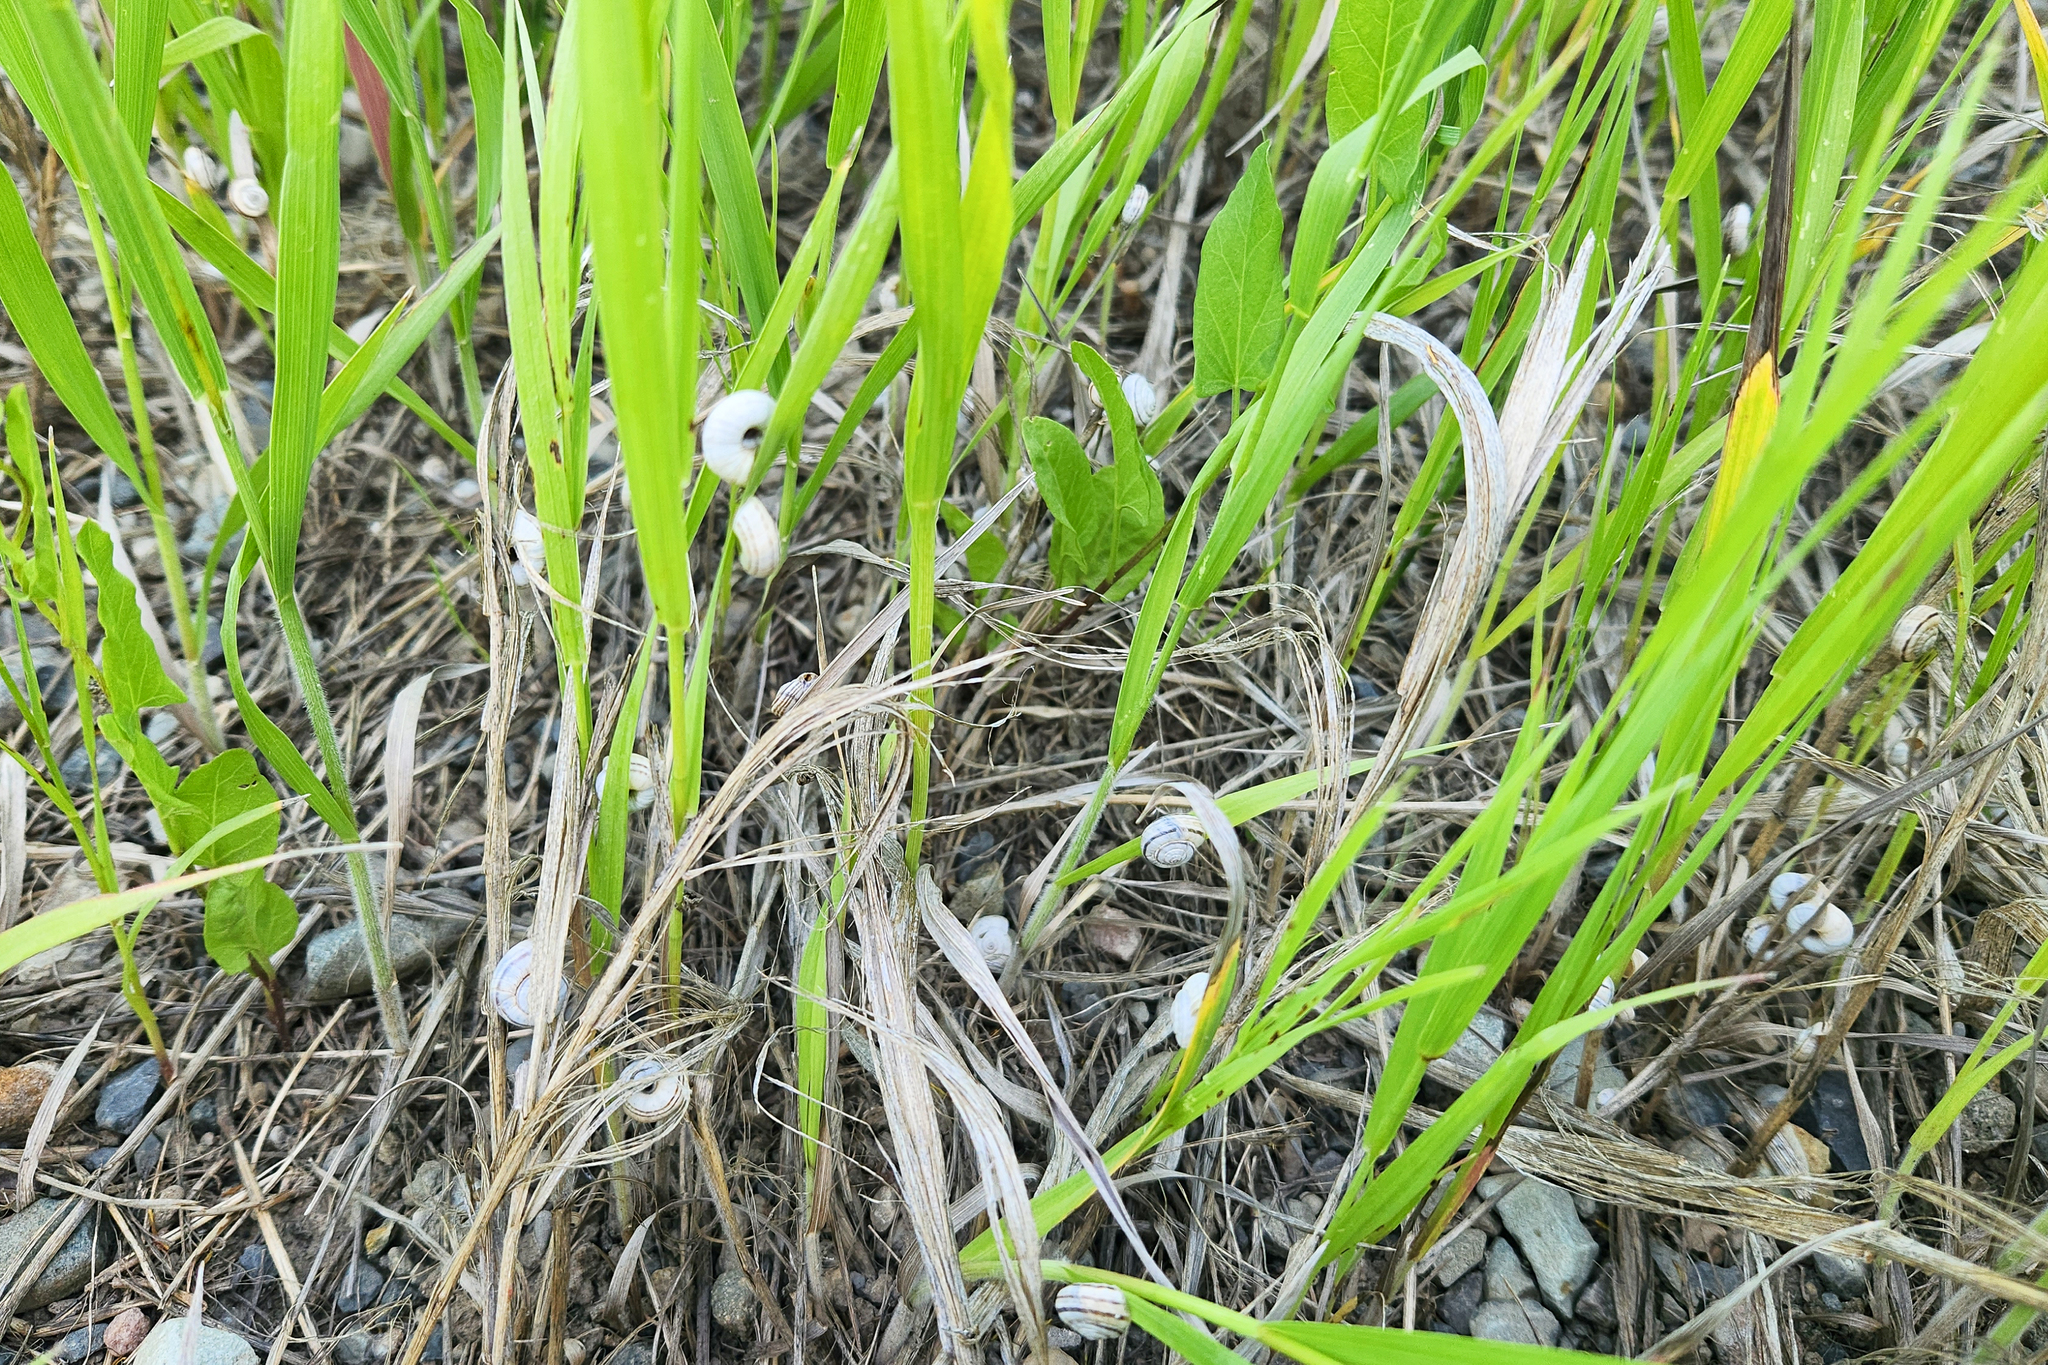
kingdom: Animalia
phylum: Mollusca
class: Gastropoda
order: Stylommatophora
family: Geomitridae
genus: Xerolenta
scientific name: Xerolenta obvia
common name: White heath snail
